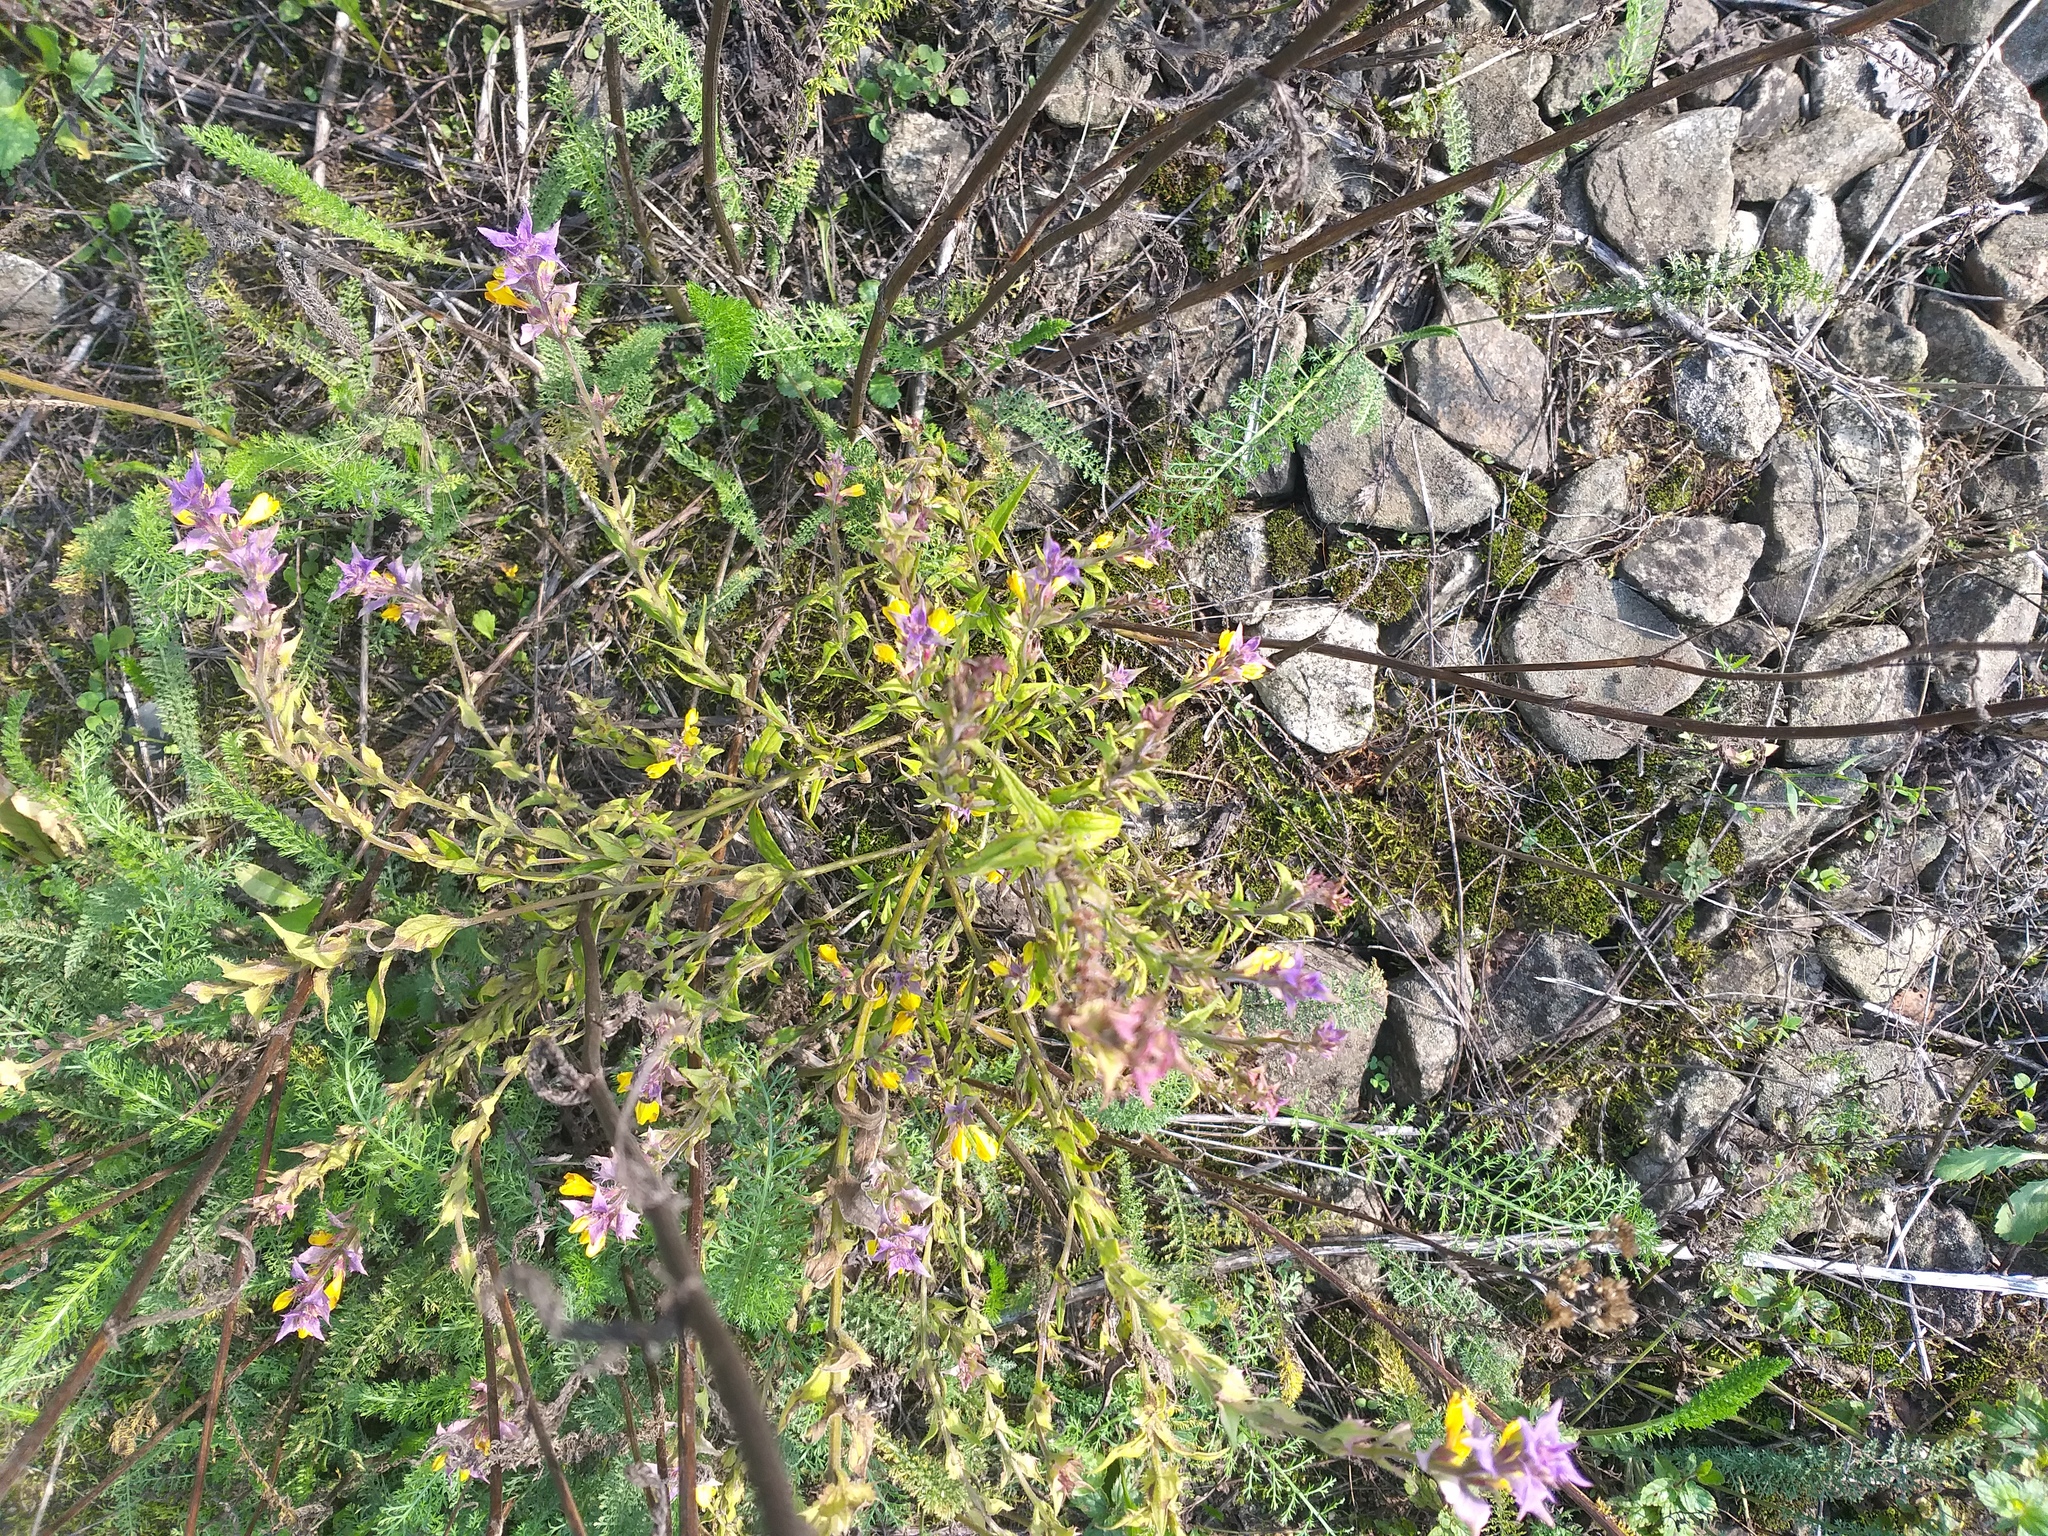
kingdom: Plantae
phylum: Tracheophyta
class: Magnoliopsida
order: Lamiales
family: Orobanchaceae
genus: Melampyrum
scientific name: Melampyrum nemorosum
